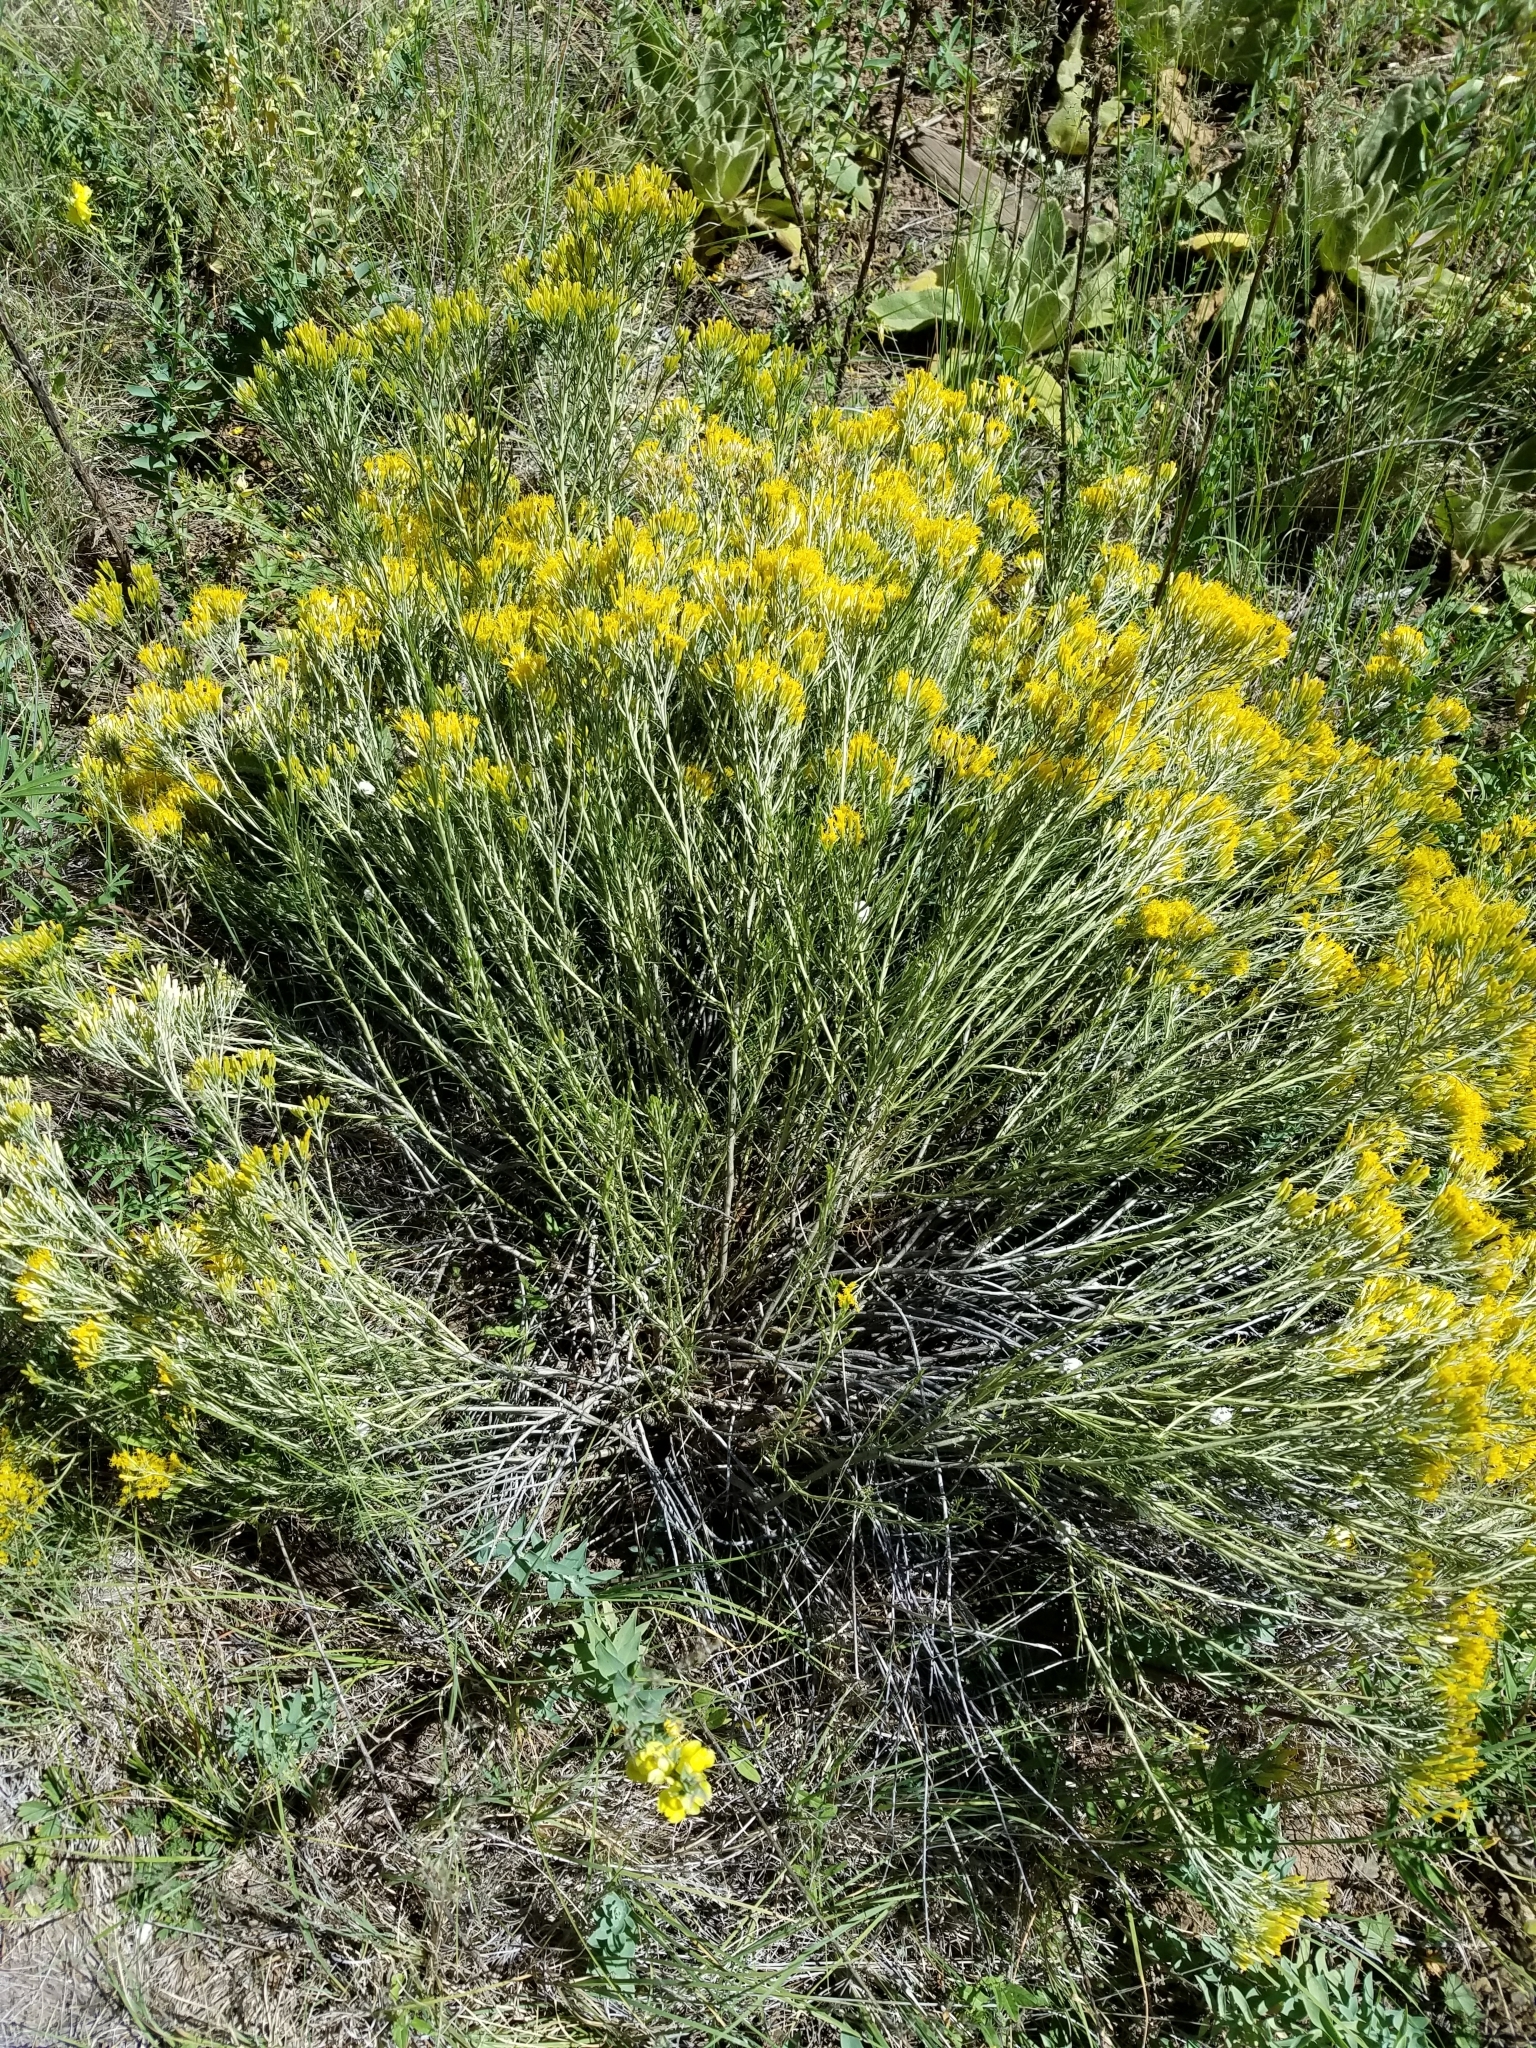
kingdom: Plantae
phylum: Tracheophyta
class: Magnoliopsida
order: Asterales
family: Asteraceae
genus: Ericameria
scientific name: Ericameria nauseosa
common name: Rubber rabbitbrush
